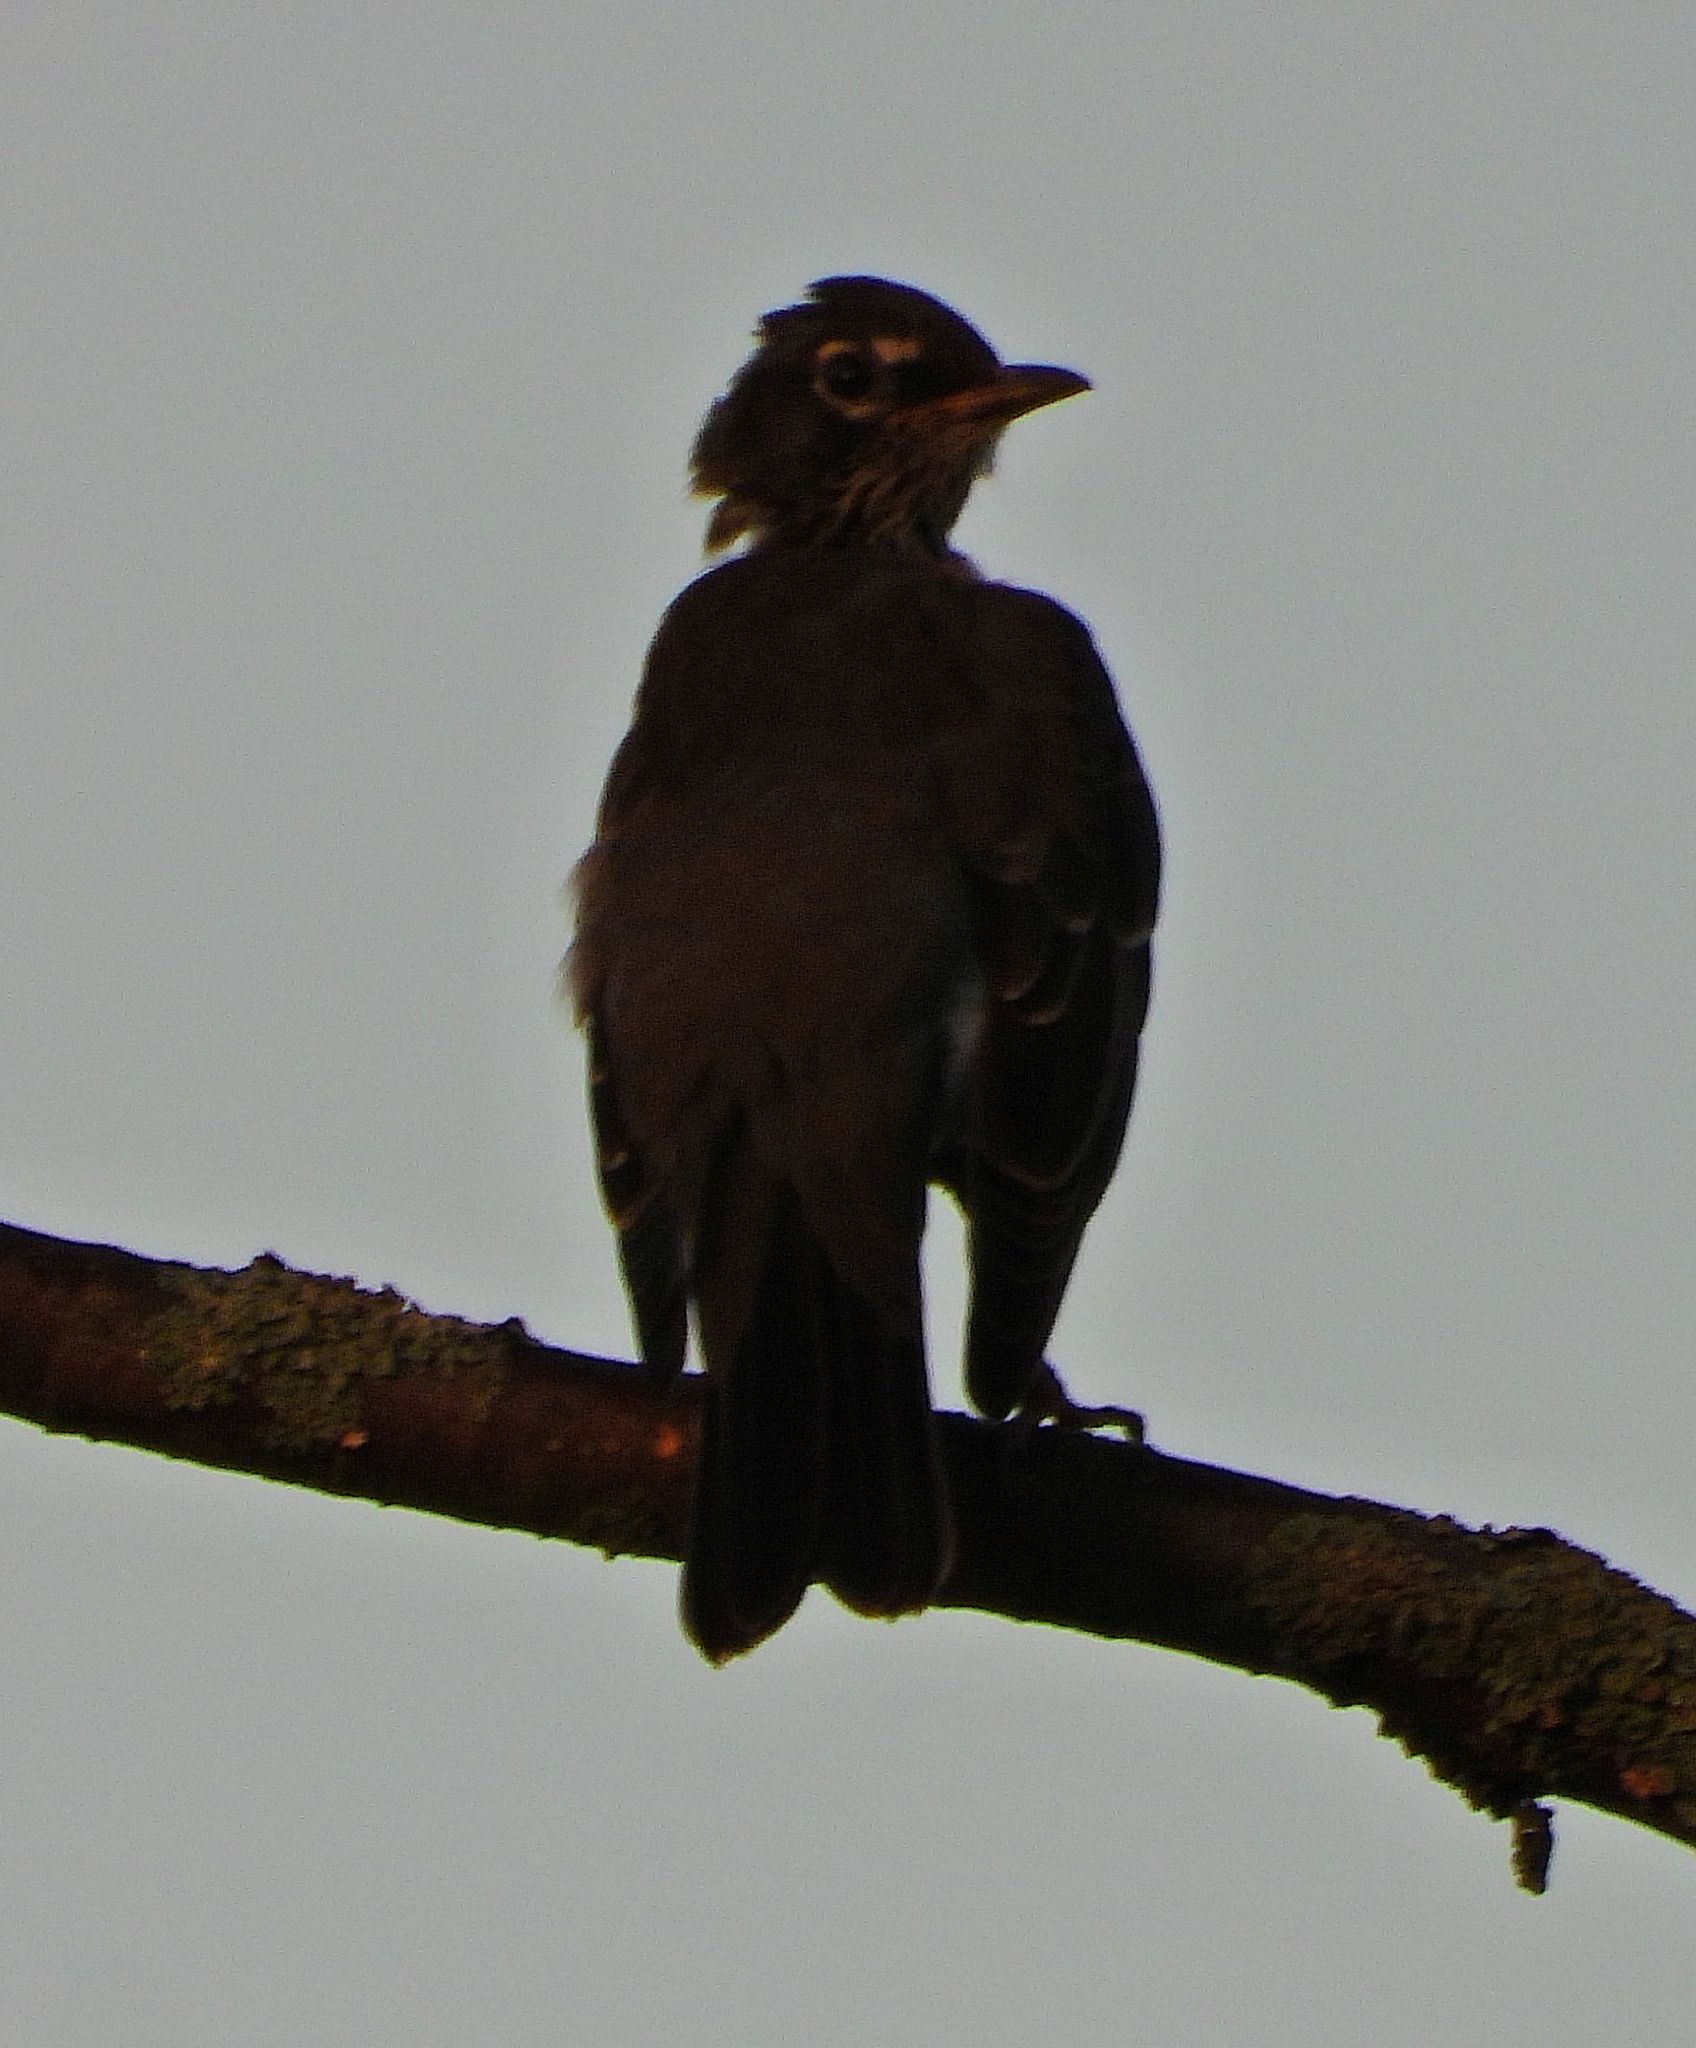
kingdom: Animalia
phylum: Chordata
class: Aves
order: Passeriformes
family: Turdidae
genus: Turdus
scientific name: Turdus migratorius
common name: American robin
